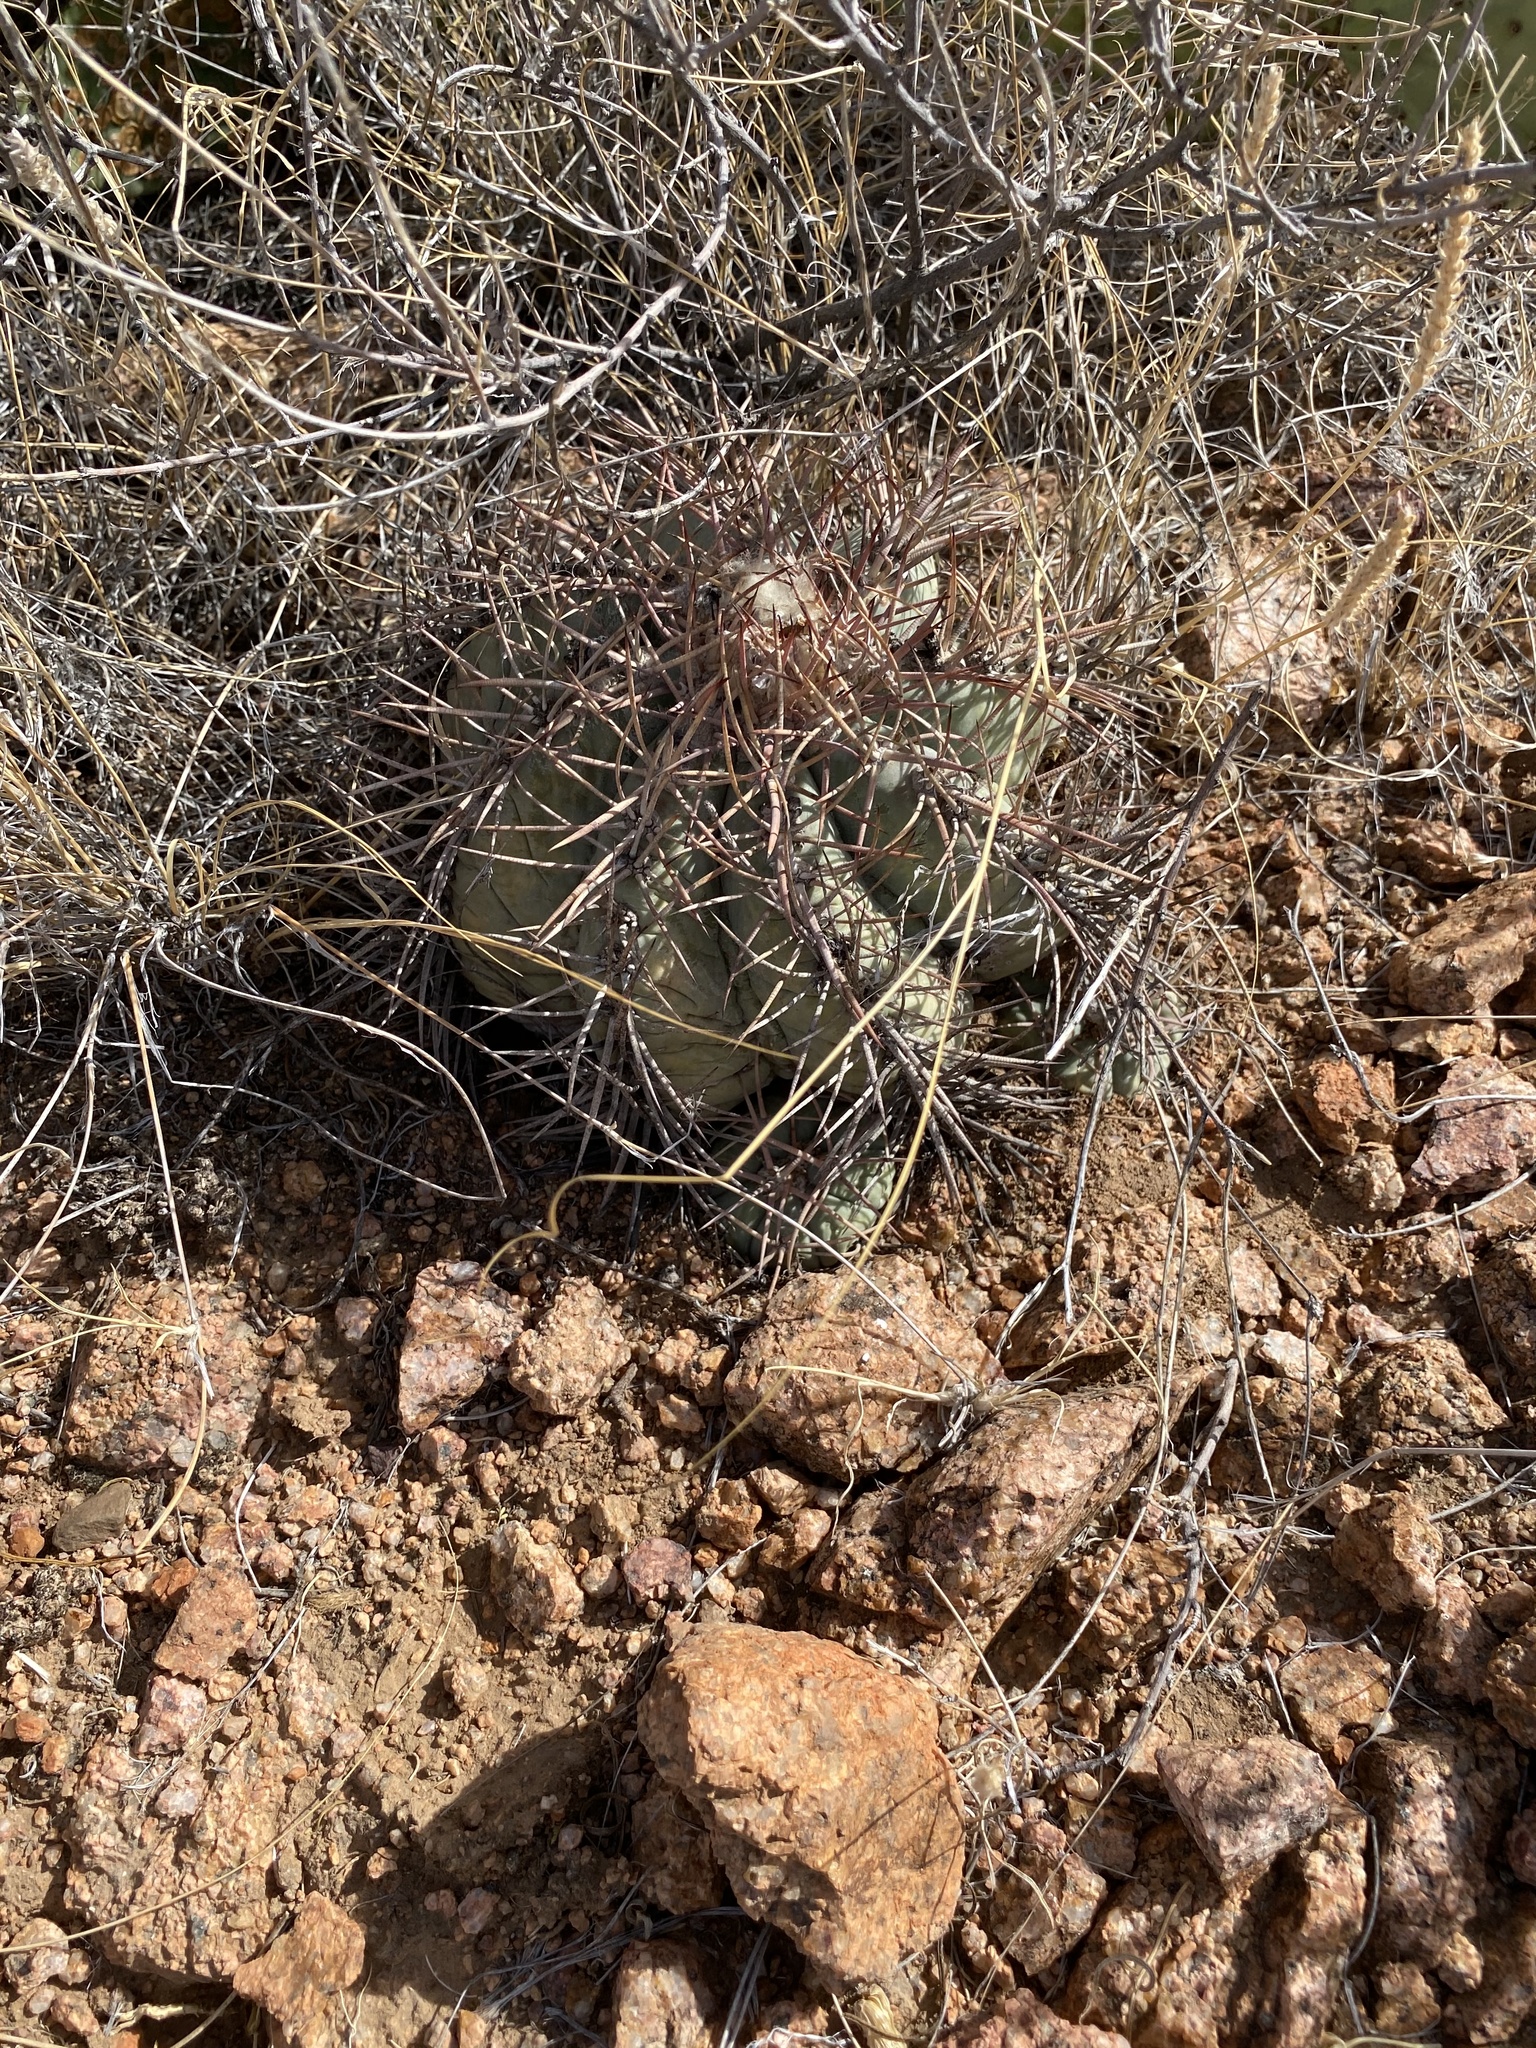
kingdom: Plantae
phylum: Tracheophyta
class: Magnoliopsida
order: Caryophyllales
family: Cactaceae
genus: Echinocactus
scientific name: Echinocactus horizonthalonius
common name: Devilshead
